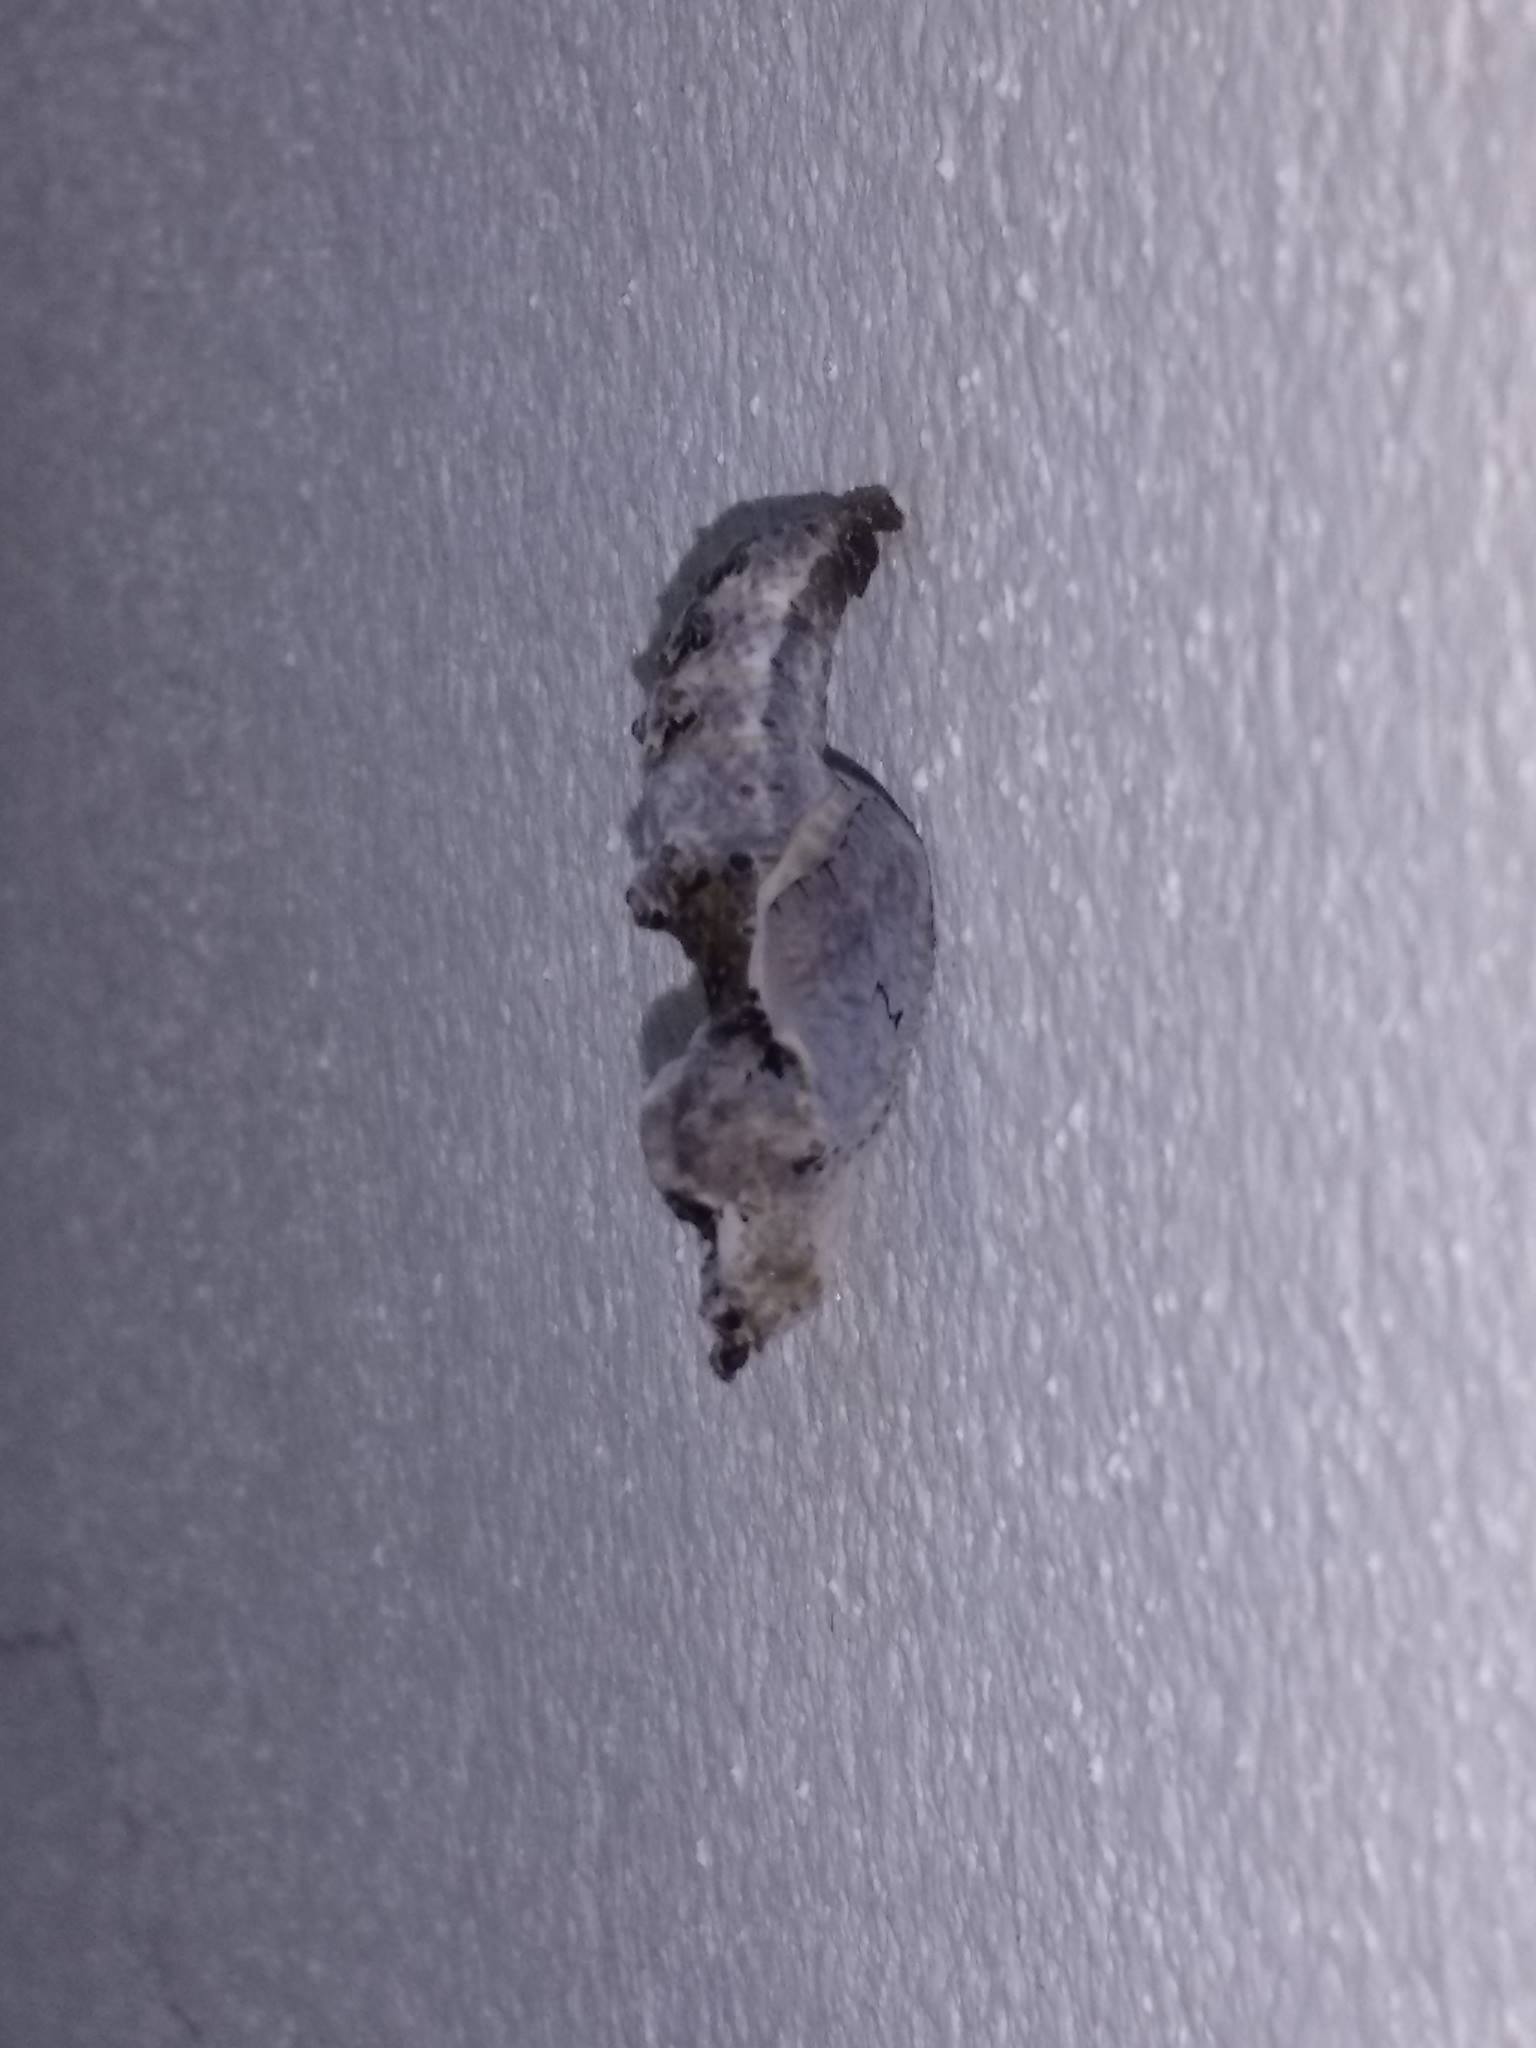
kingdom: Animalia
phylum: Arthropoda
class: Insecta
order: Lepidoptera
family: Nymphalidae
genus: Dione
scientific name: Dione vanillae
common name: Gulf fritillary
